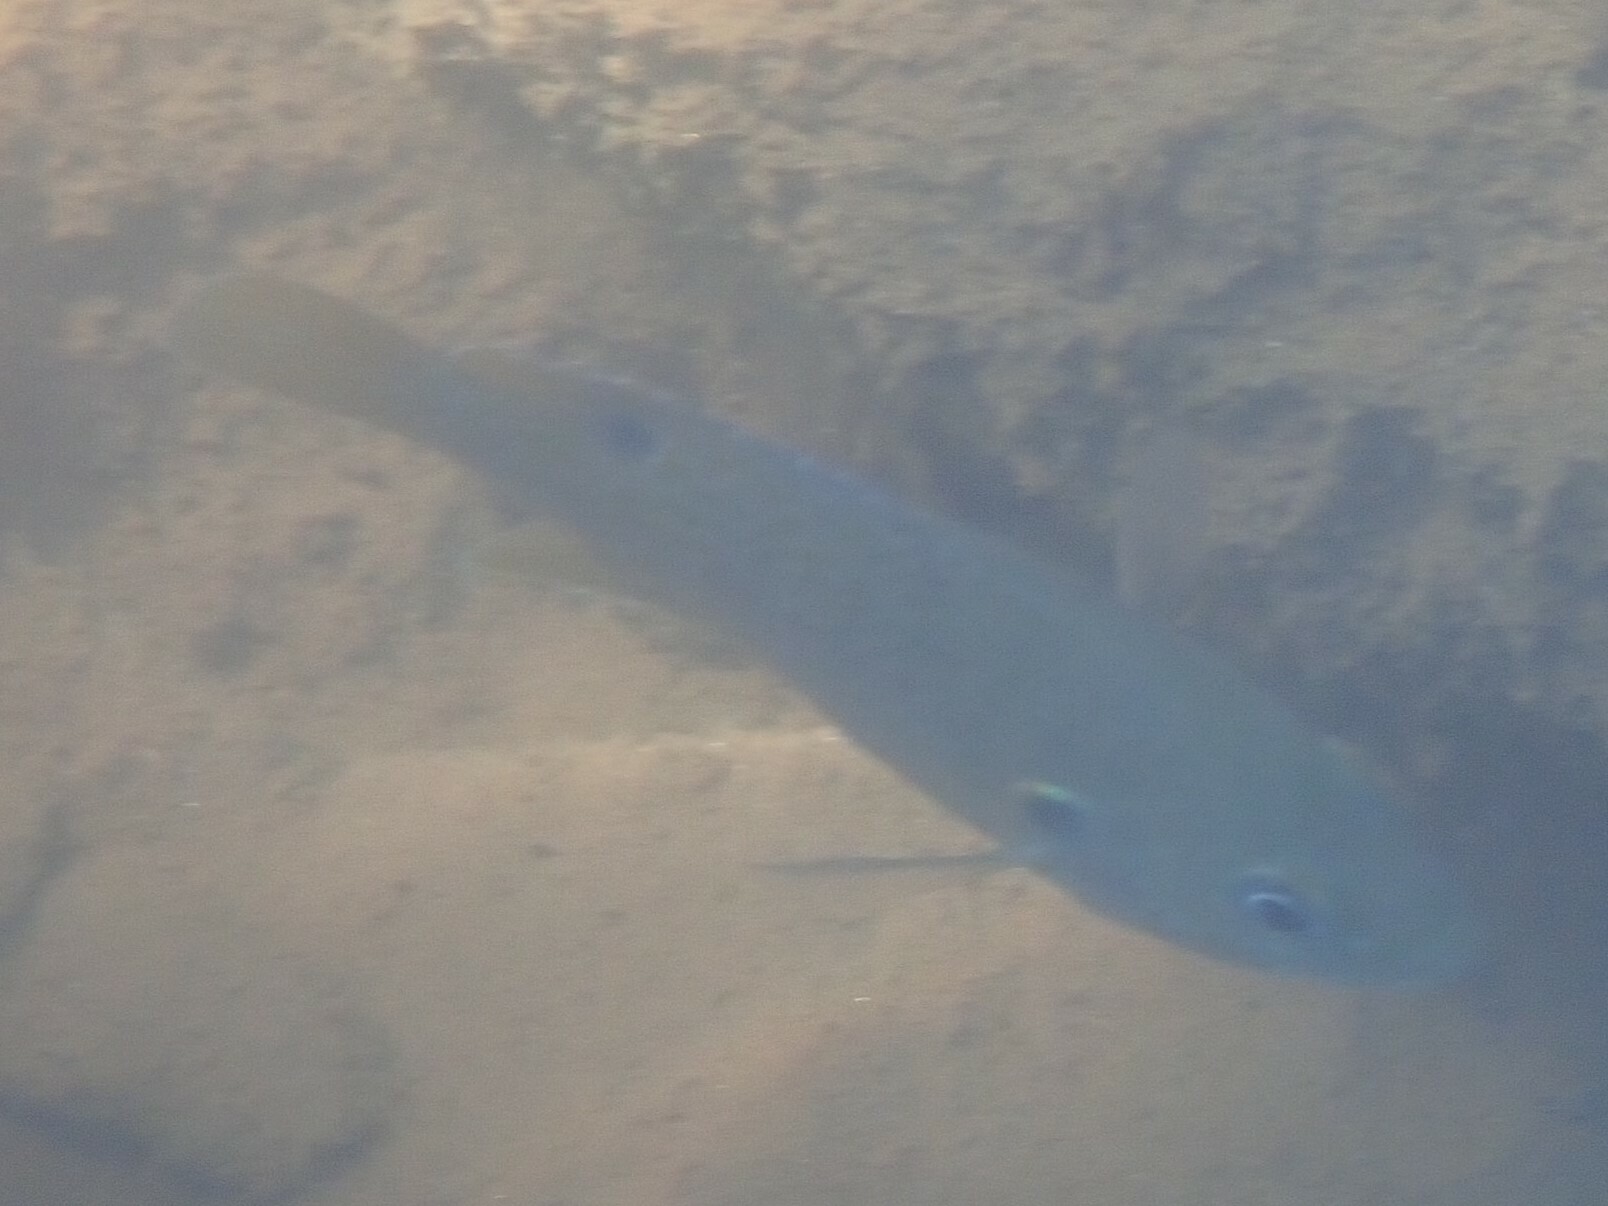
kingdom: Animalia
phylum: Chordata
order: Perciformes
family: Centrarchidae
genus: Lepomis
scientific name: Lepomis cyanellus
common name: Green sunfish
